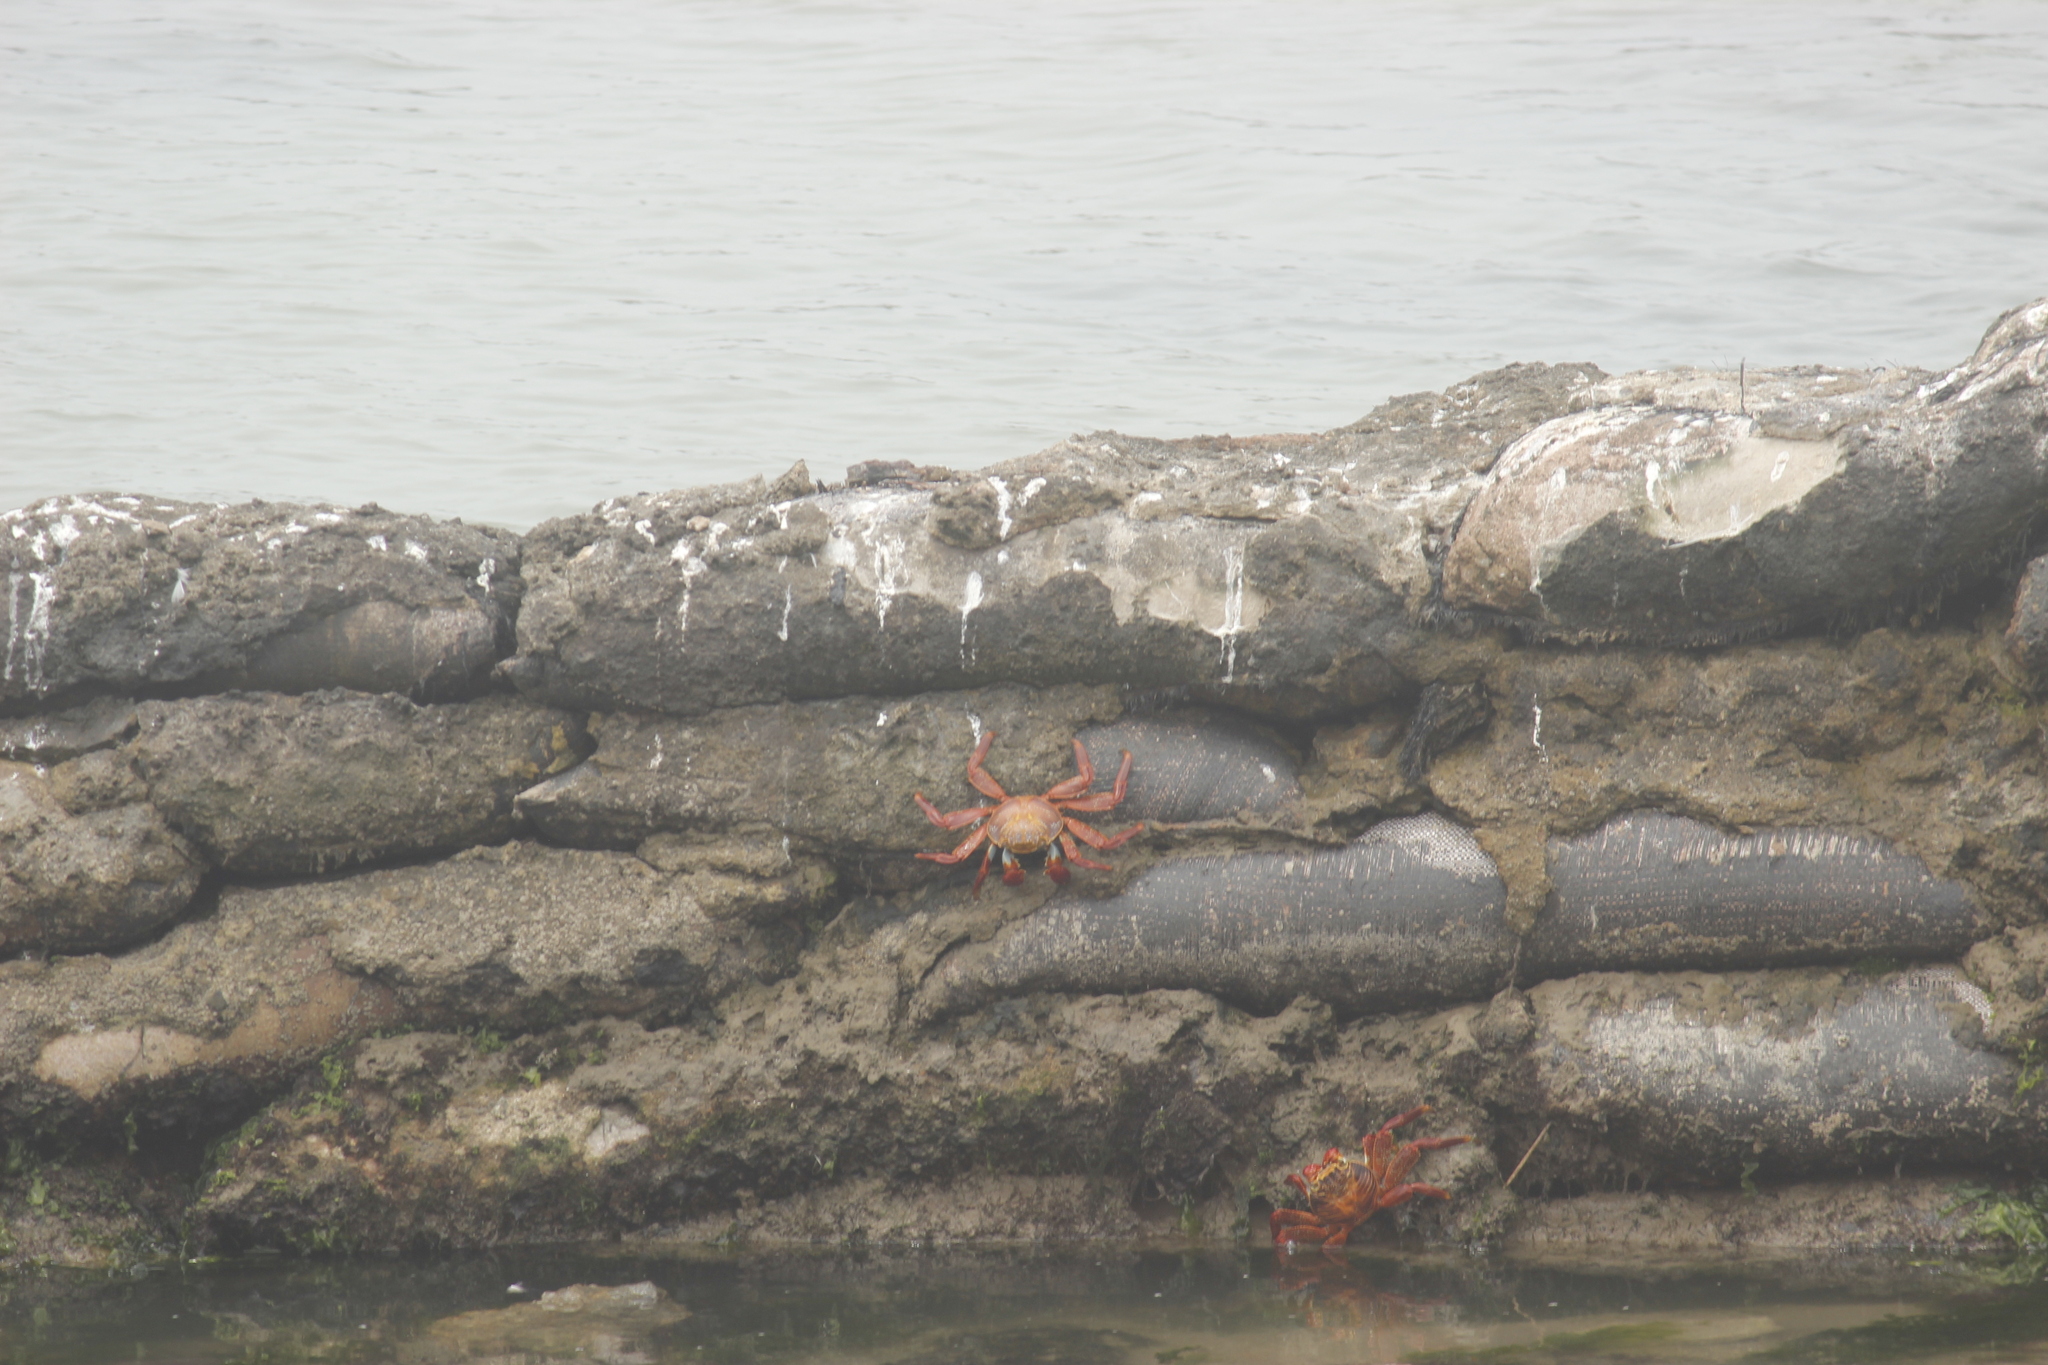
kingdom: Animalia
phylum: Arthropoda
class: Malacostraca
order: Decapoda
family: Grapsidae
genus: Grapsus
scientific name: Grapsus grapsus
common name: Sally lightfoot
